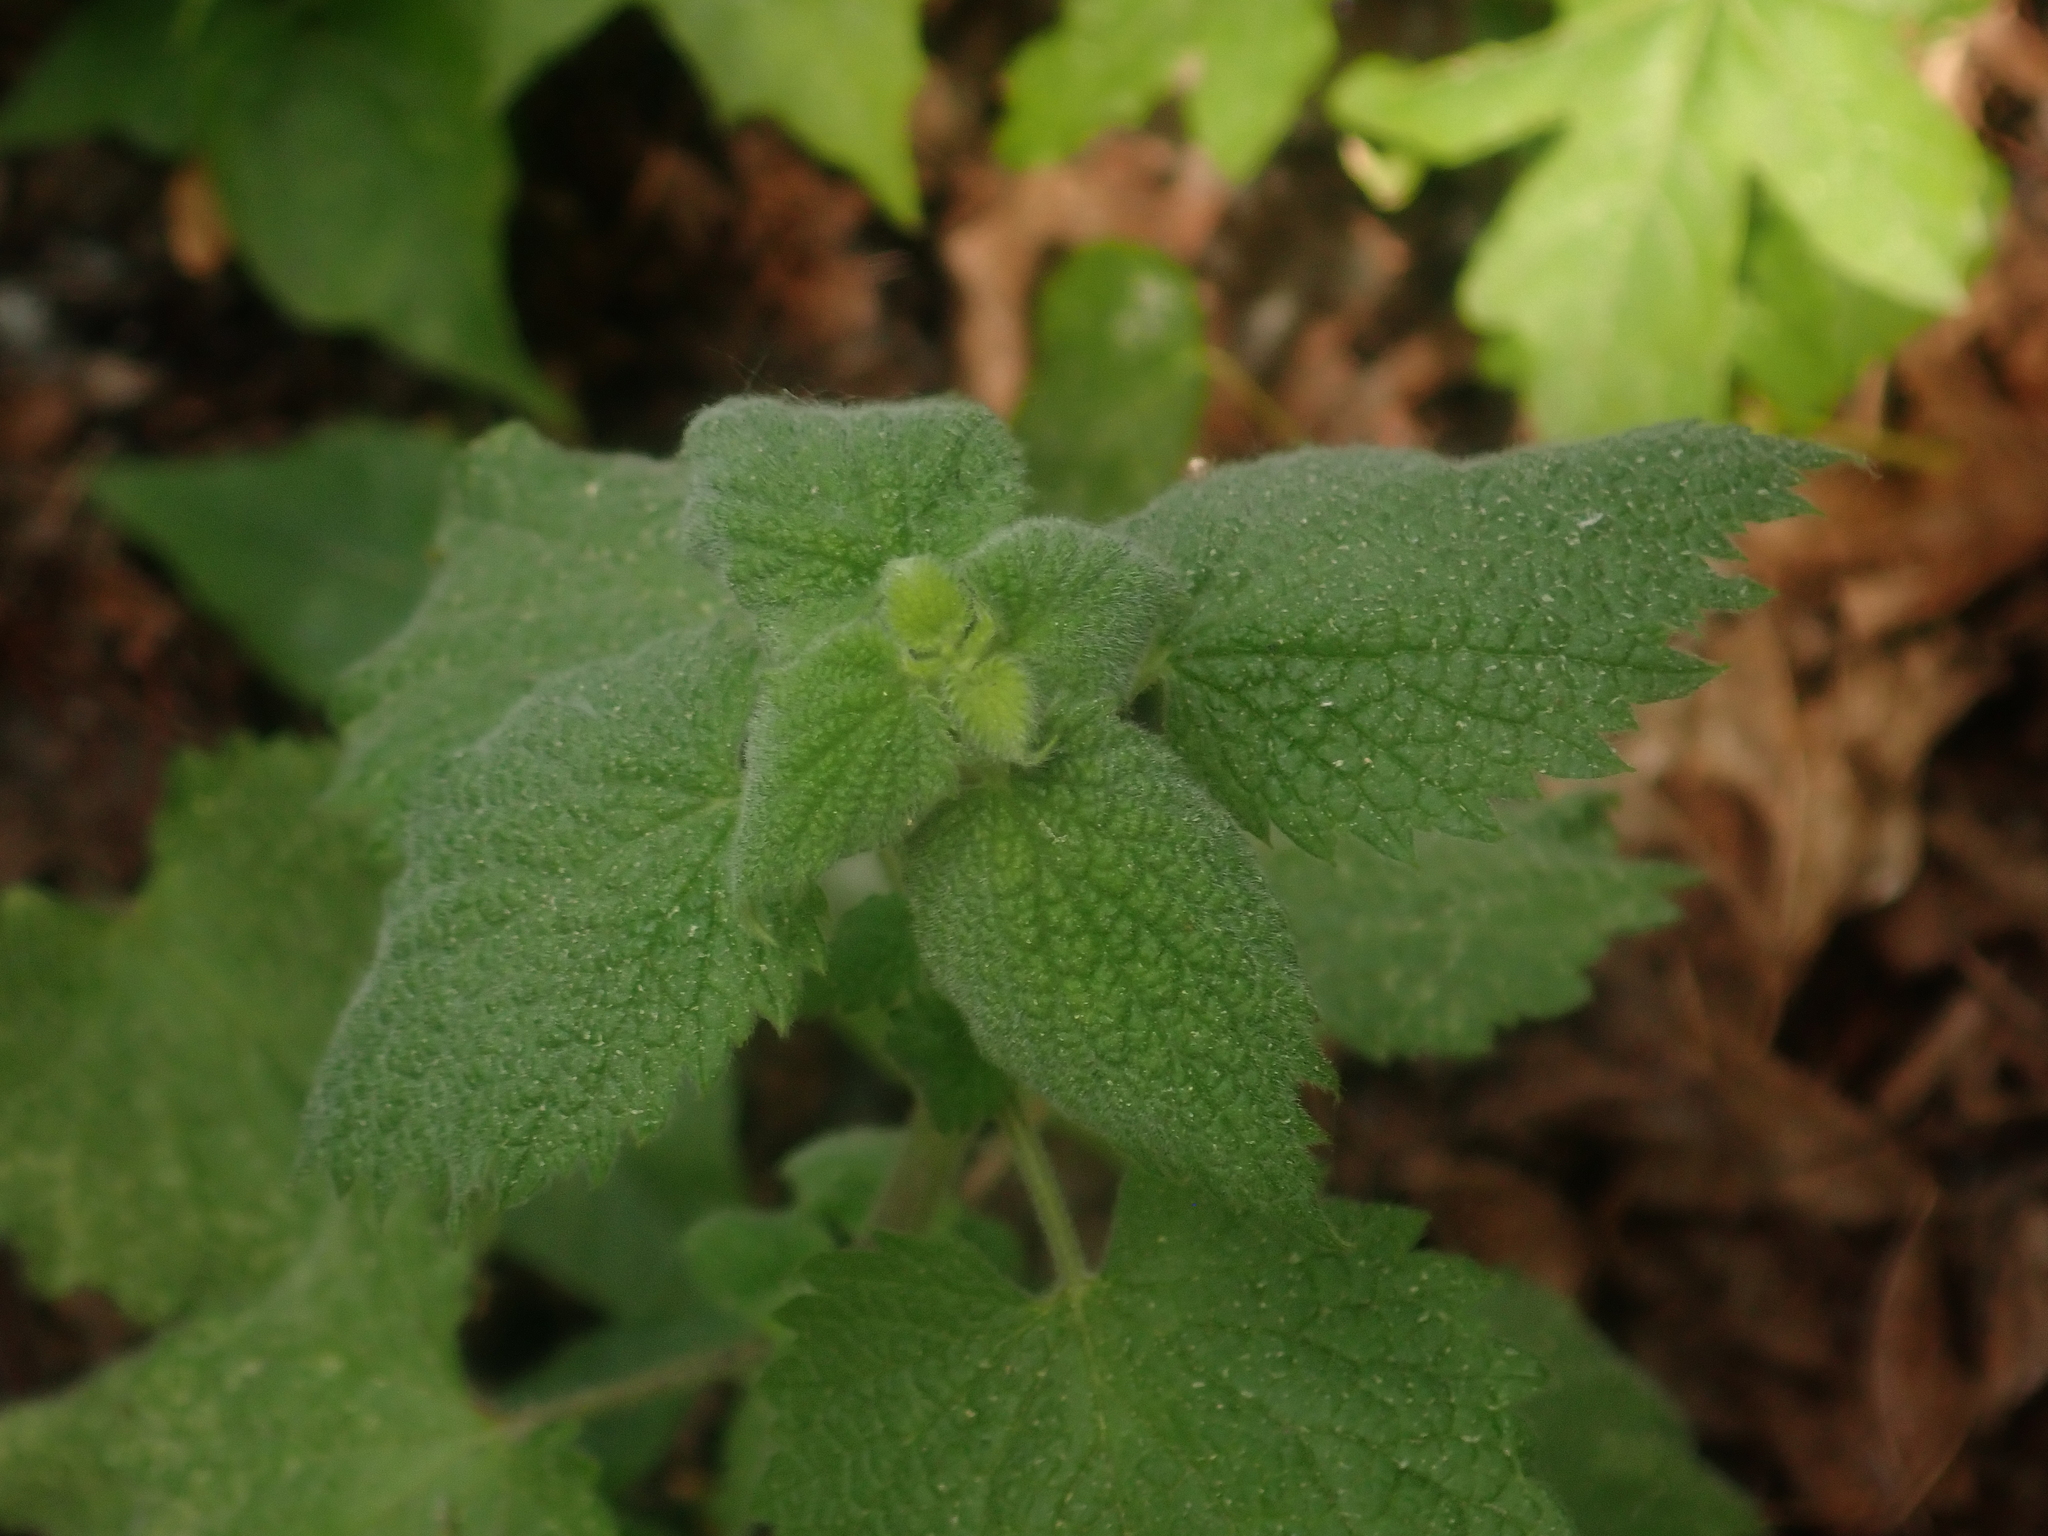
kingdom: Plantae
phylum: Tracheophyta
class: Magnoliopsida
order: Lamiales
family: Lamiaceae
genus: Ballota
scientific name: Ballota nigra
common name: Black horehound
